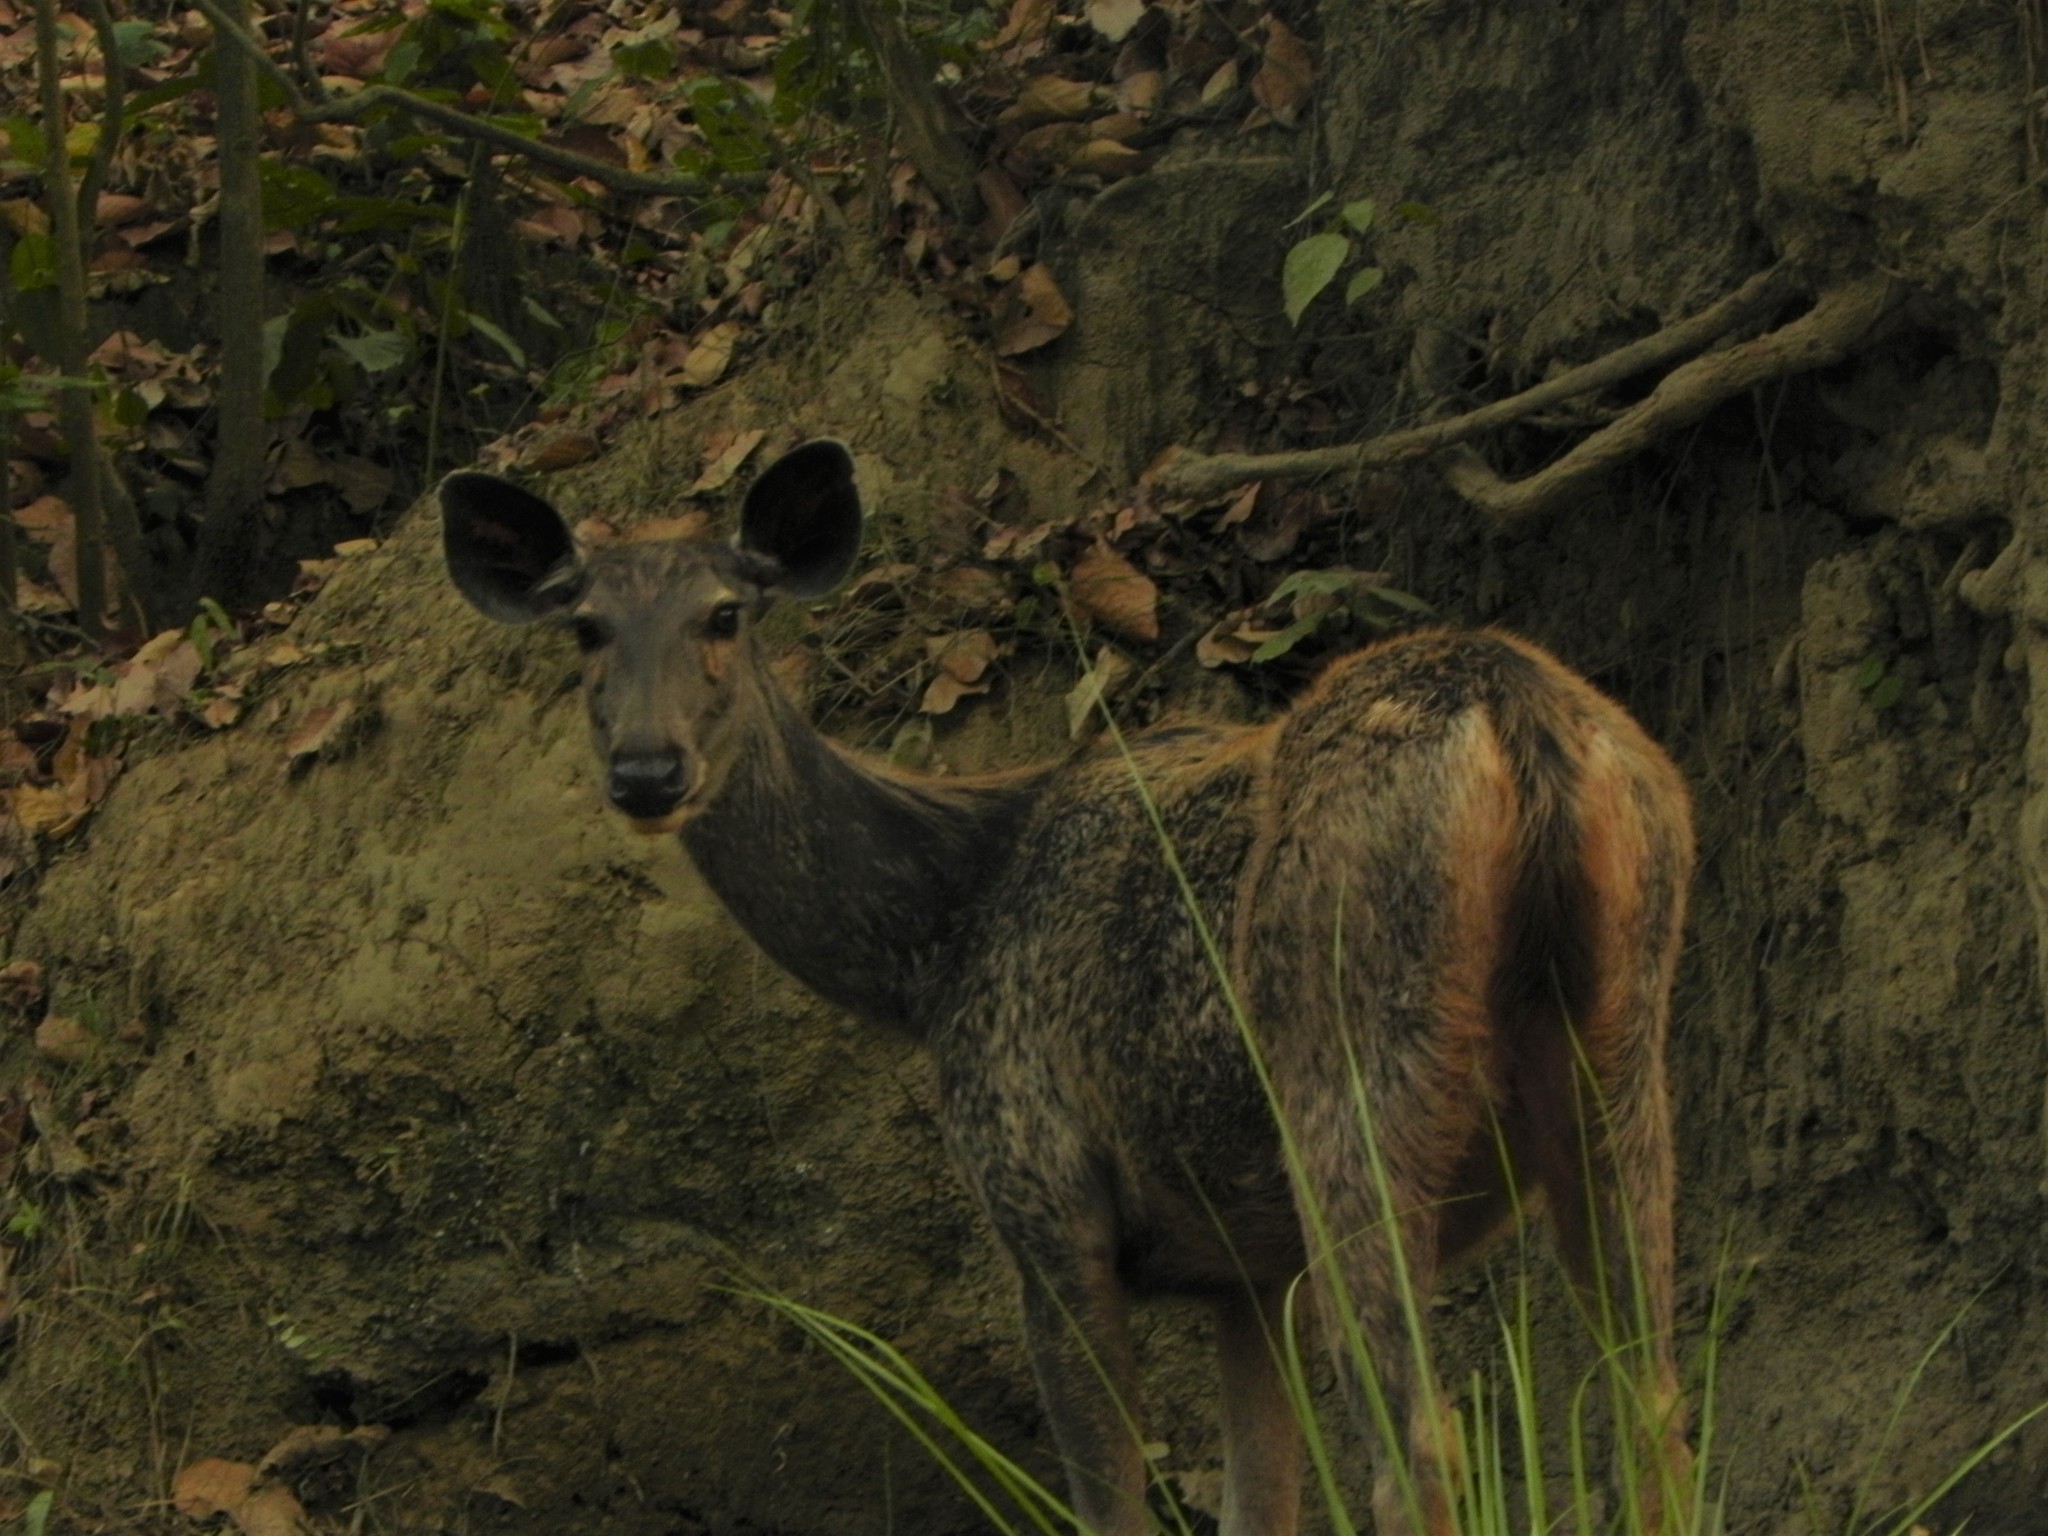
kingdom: Animalia
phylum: Chordata
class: Mammalia
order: Artiodactyla
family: Cervidae
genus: Rusa
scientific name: Rusa unicolor
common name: Sambar
